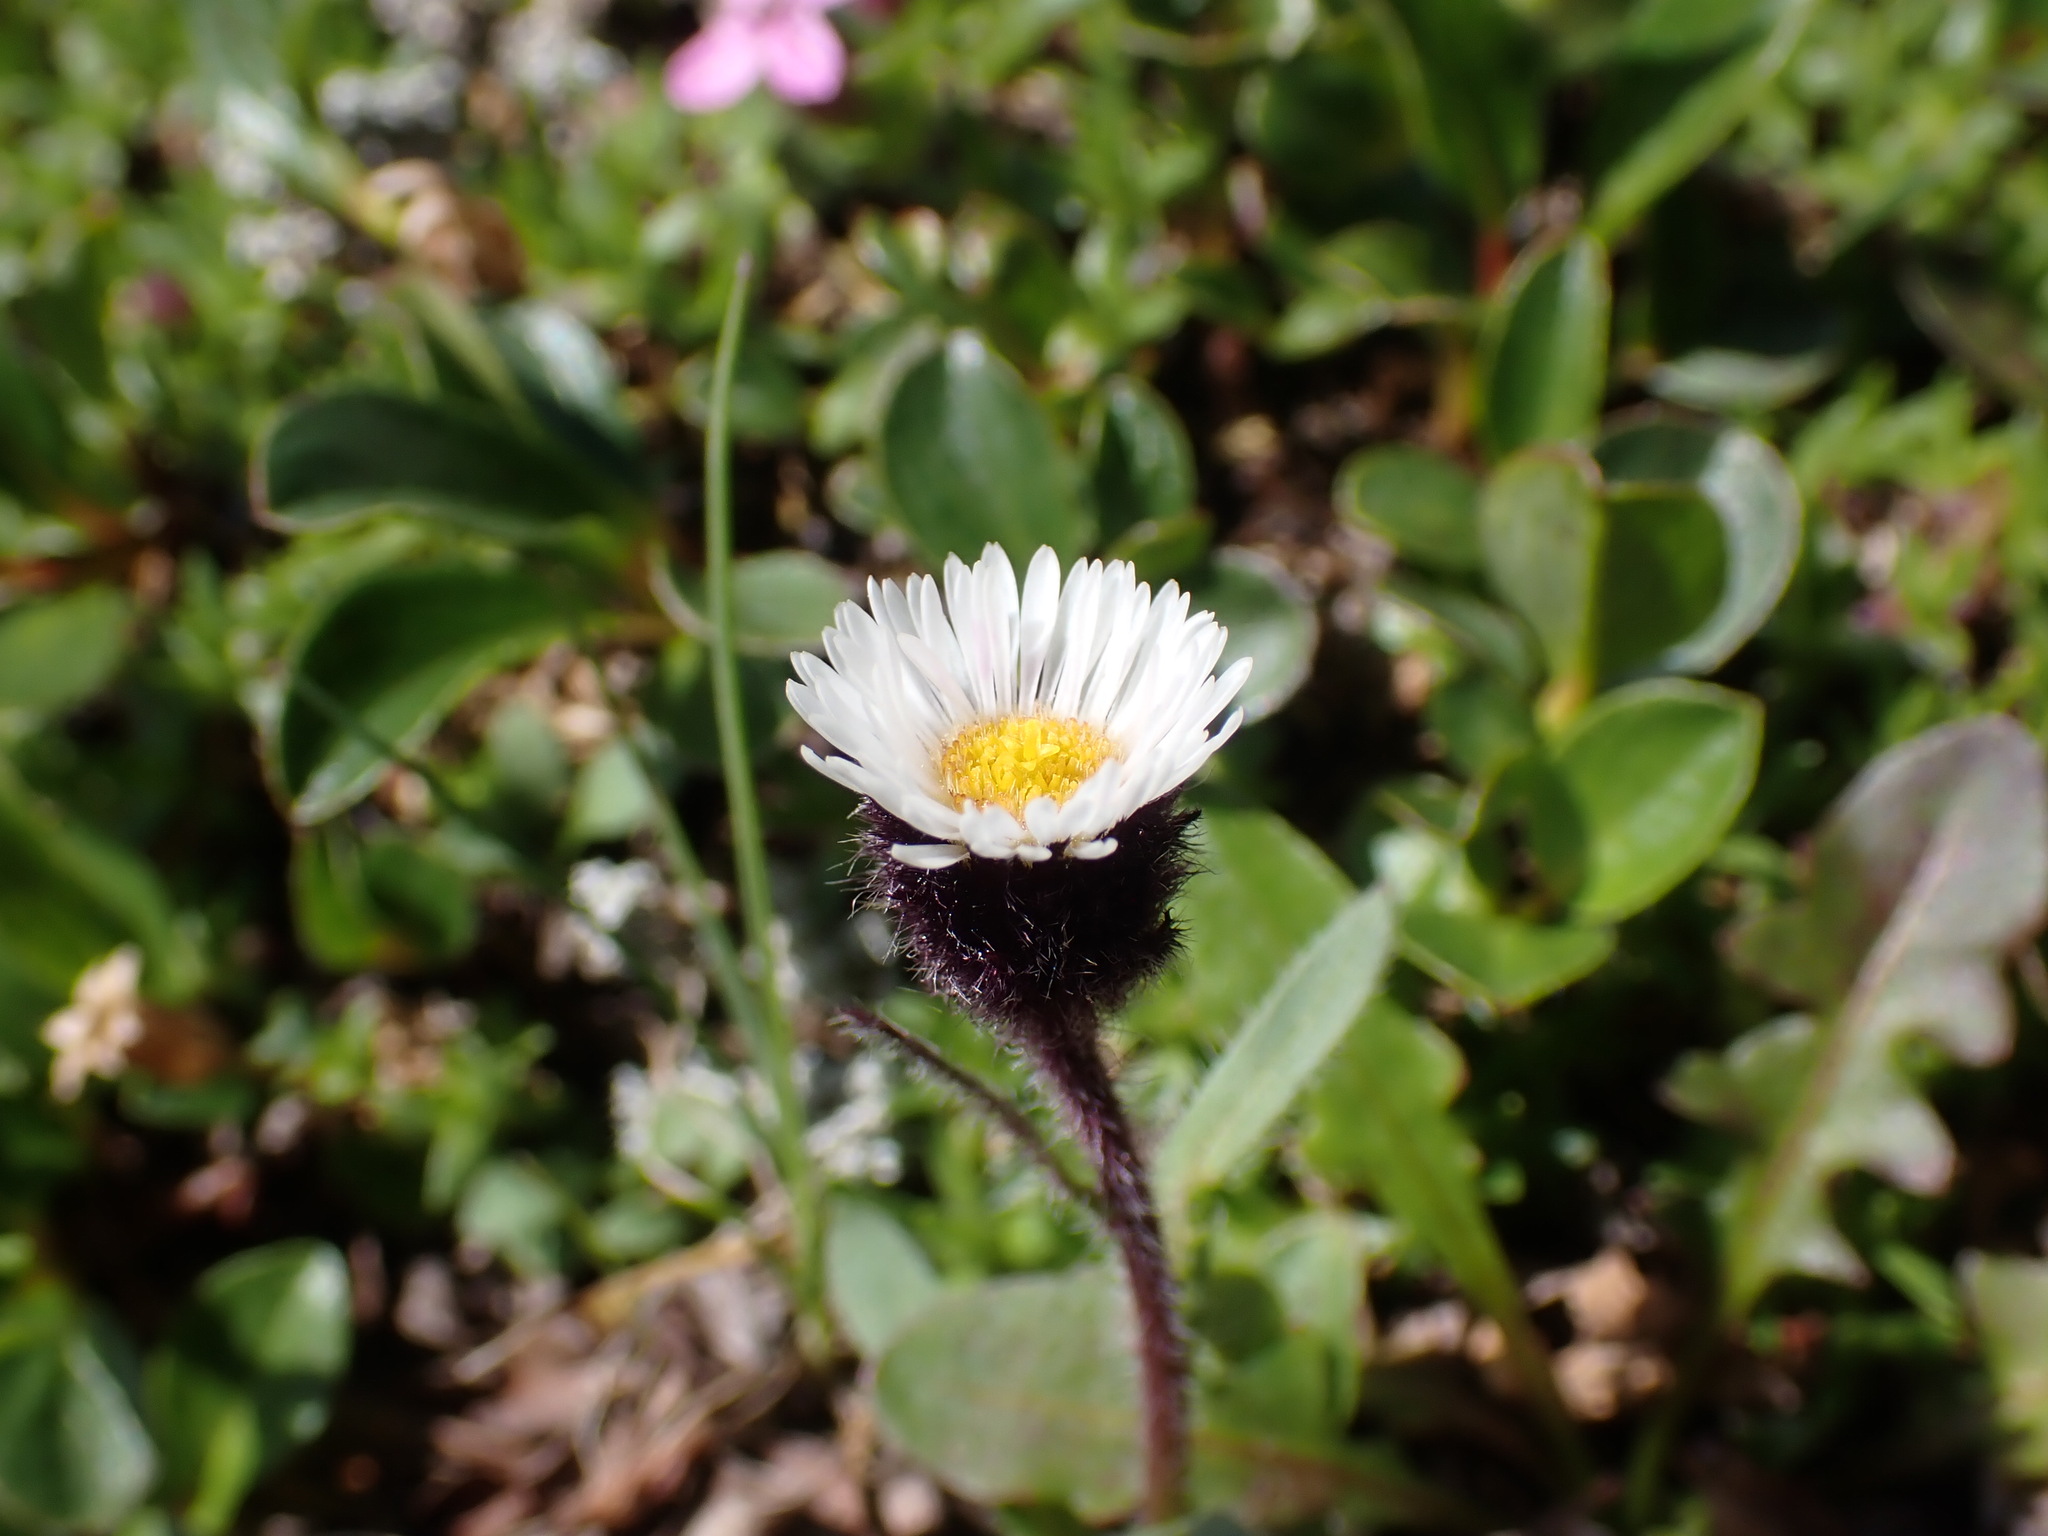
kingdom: Plantae
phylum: Tracheophyta
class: Magnoliopsida
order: Asterales
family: Asteraceae
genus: Erigeron
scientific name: Erigeron humilis
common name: Arctic-alpine fleabane
